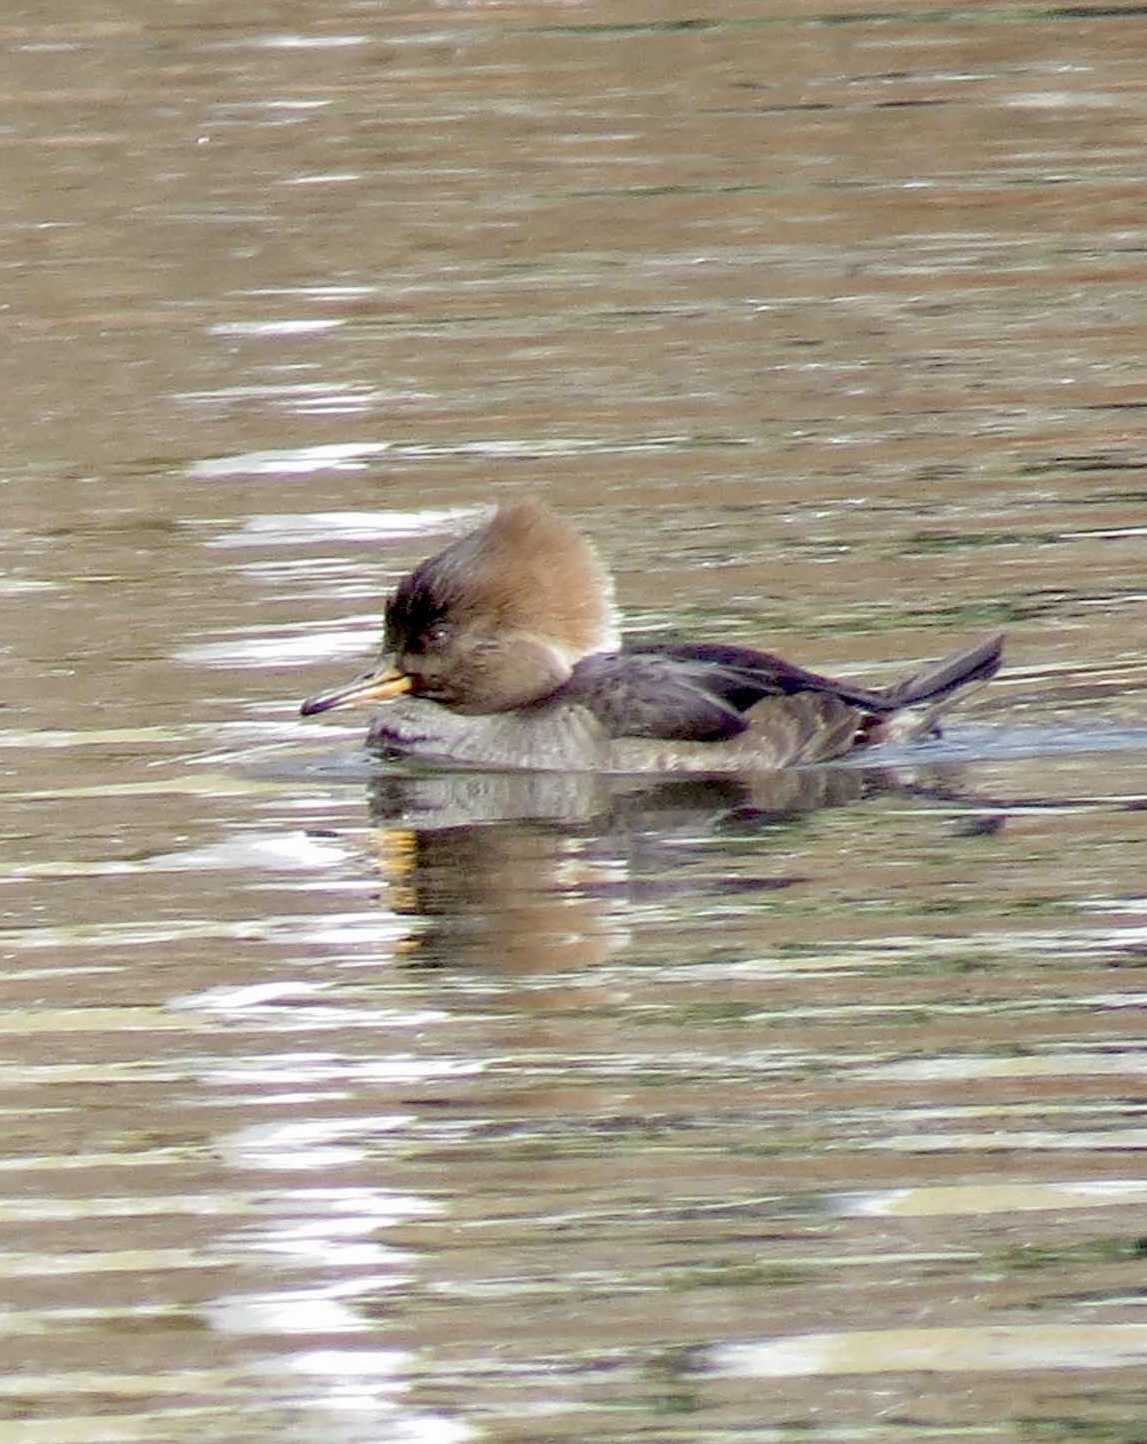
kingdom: Animalia
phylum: Chordata
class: Aves
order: Anseriformes
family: Anatidae
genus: Lophodytes
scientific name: Lophodytes cucullatus
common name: Hooded merganser
